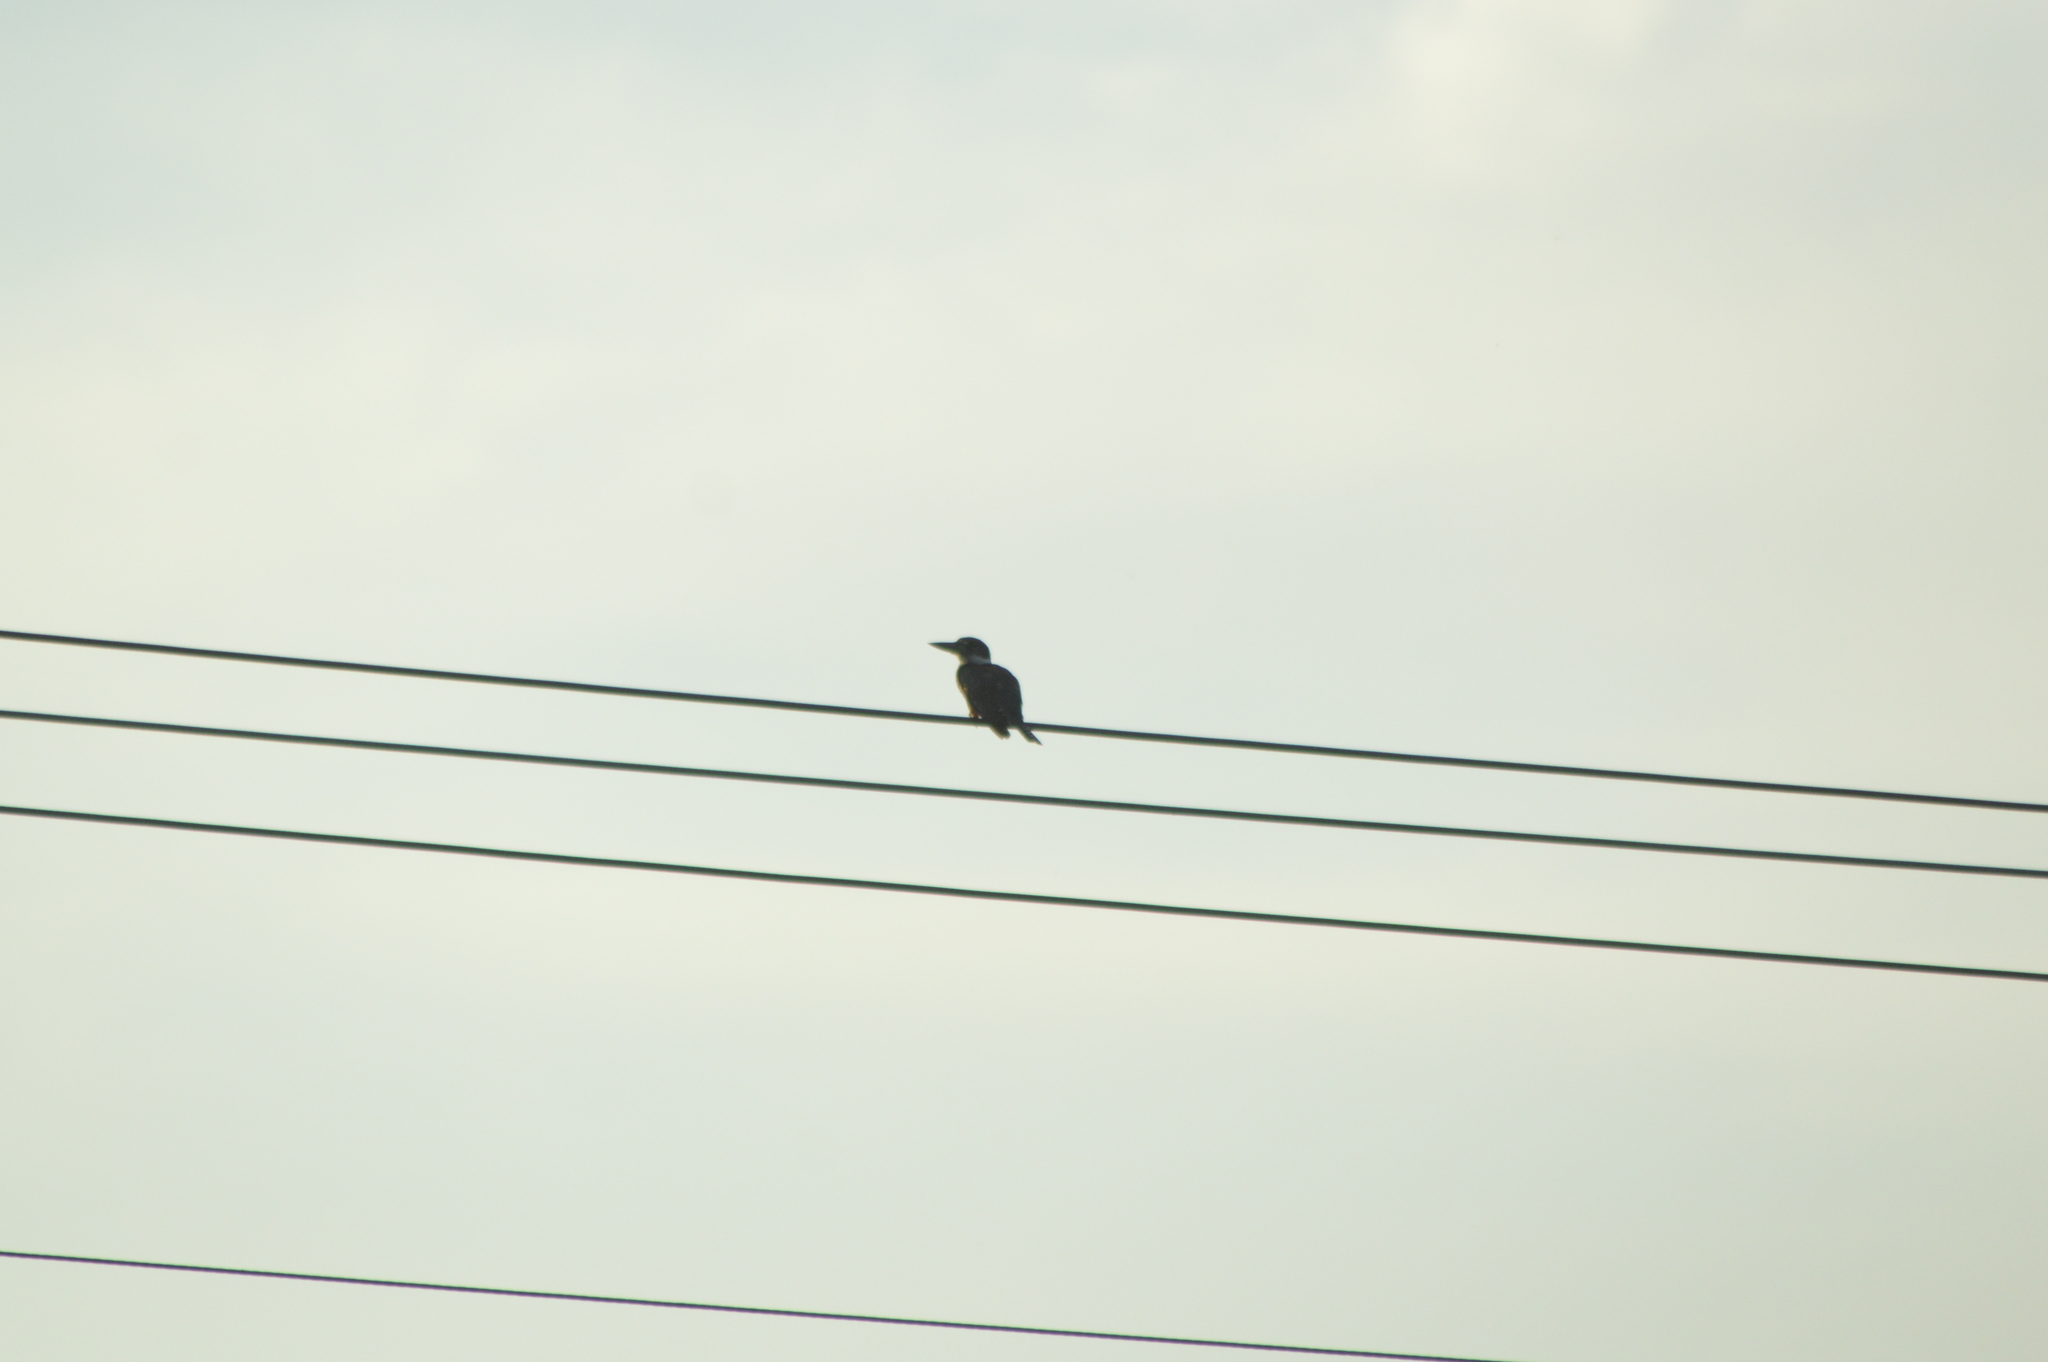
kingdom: Animalia
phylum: Chordata
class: Aves
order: Coraciiformes
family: Alcedinidae
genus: Megaceryle
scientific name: Megaceryle torquata
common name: Ringed kingfisher
